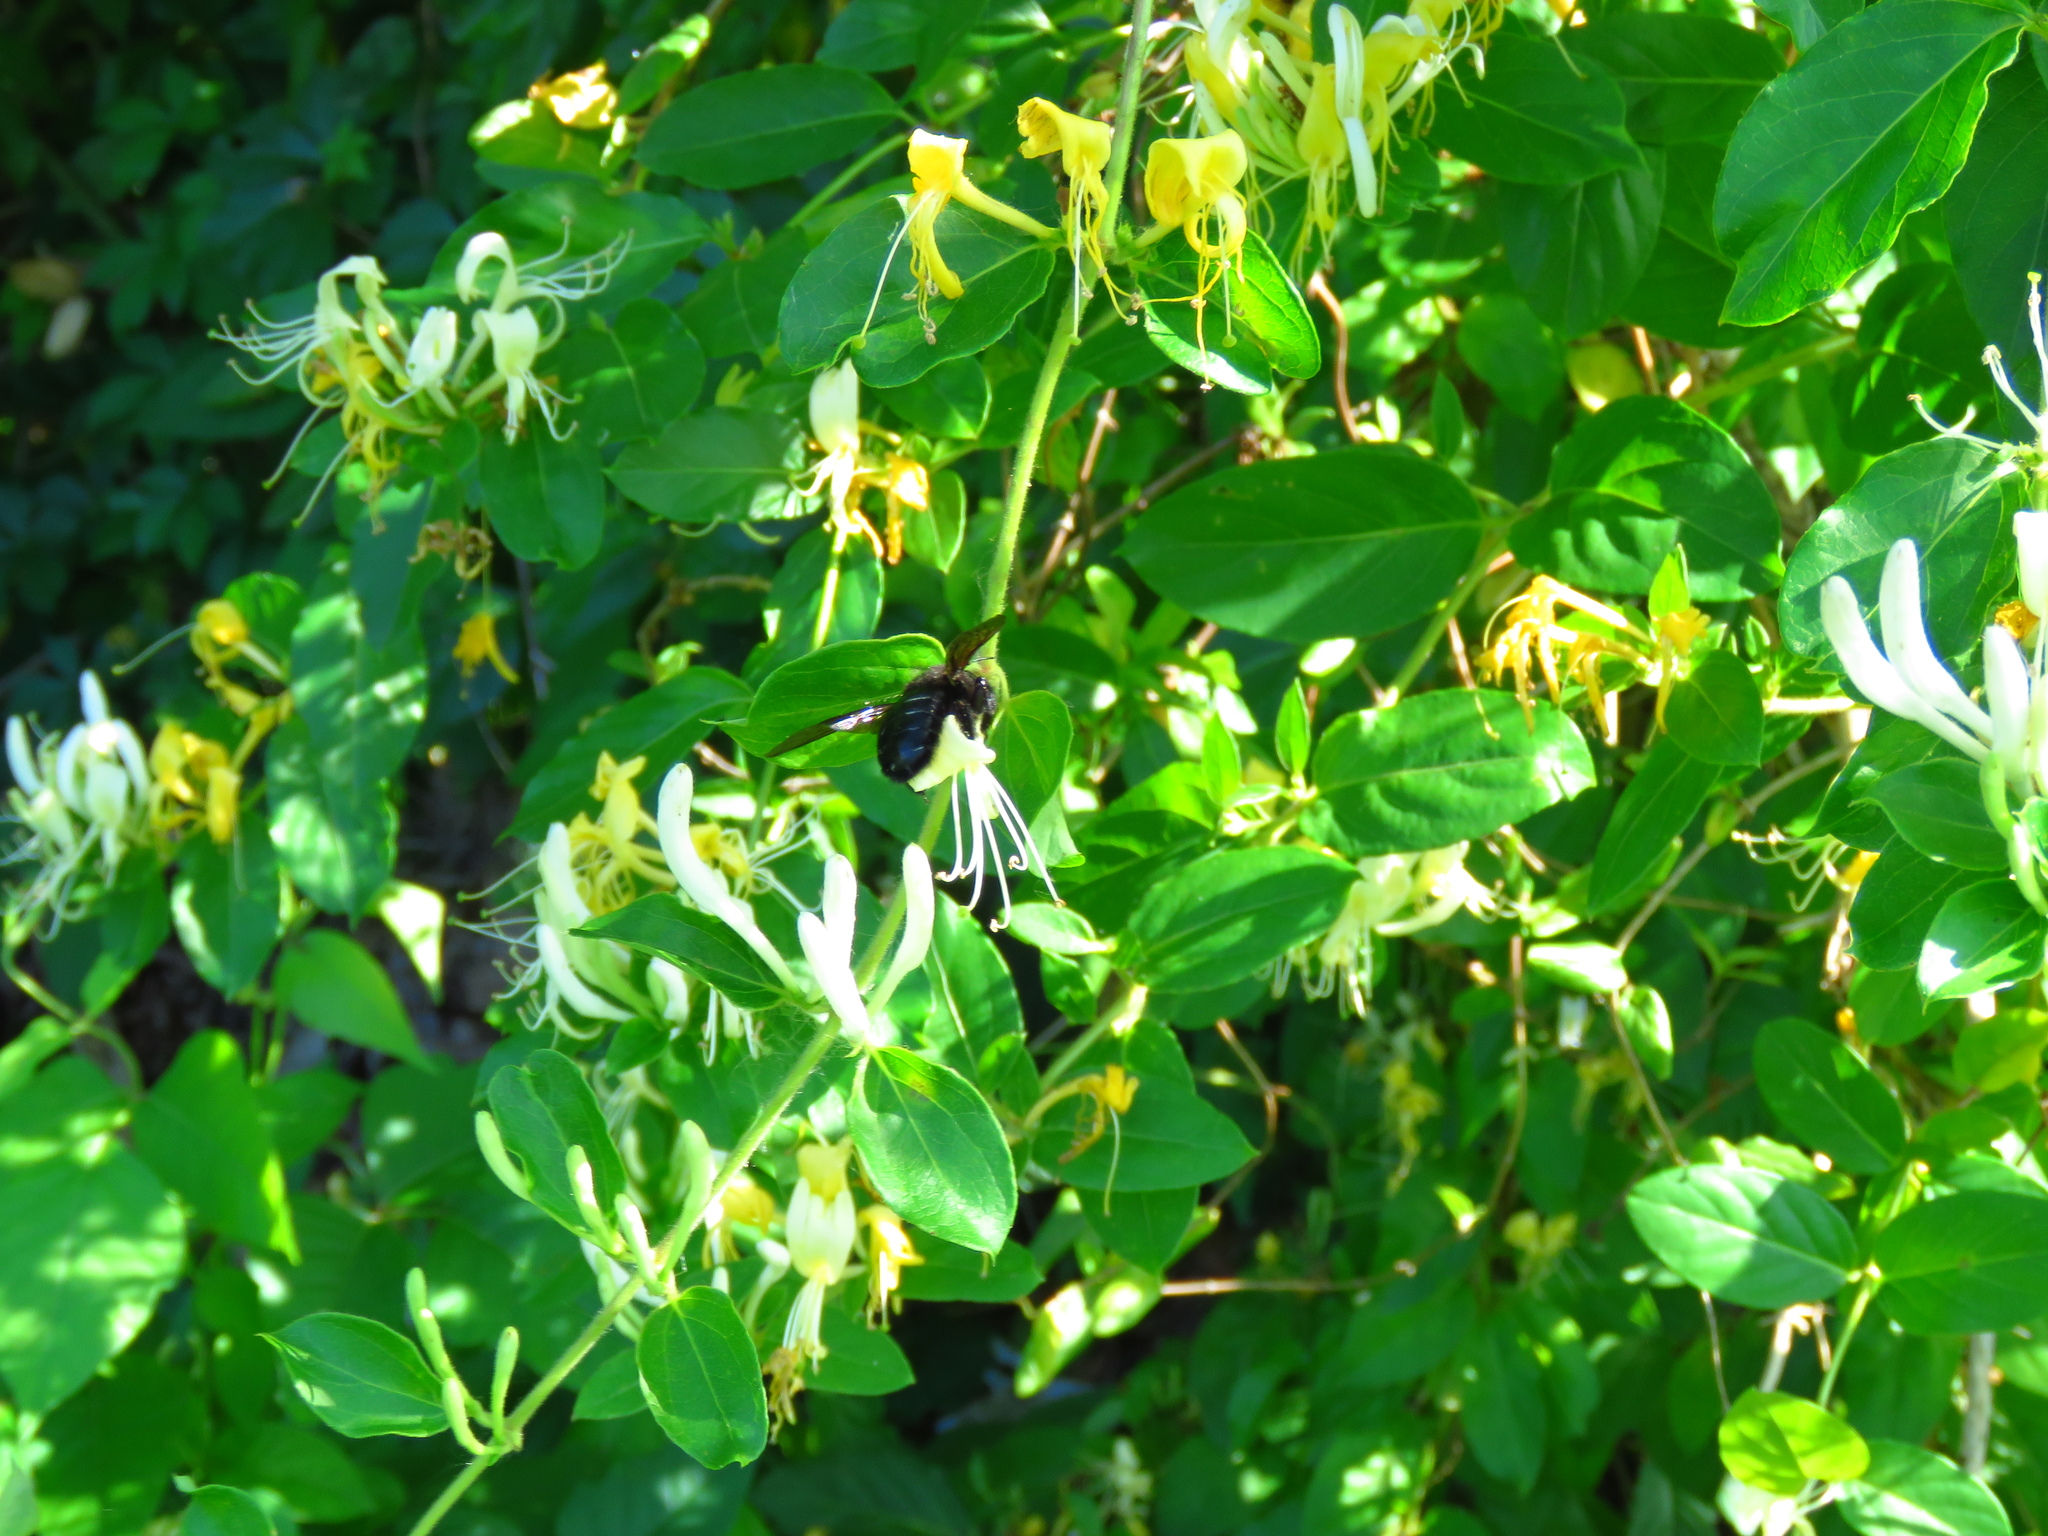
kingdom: Plantae
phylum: Tracheophyta
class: Magnoliopsida
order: Dipsacales
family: Caprifoliaceae
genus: Lonicera
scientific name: Lonicera japonica
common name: Japanese honeysuckle
